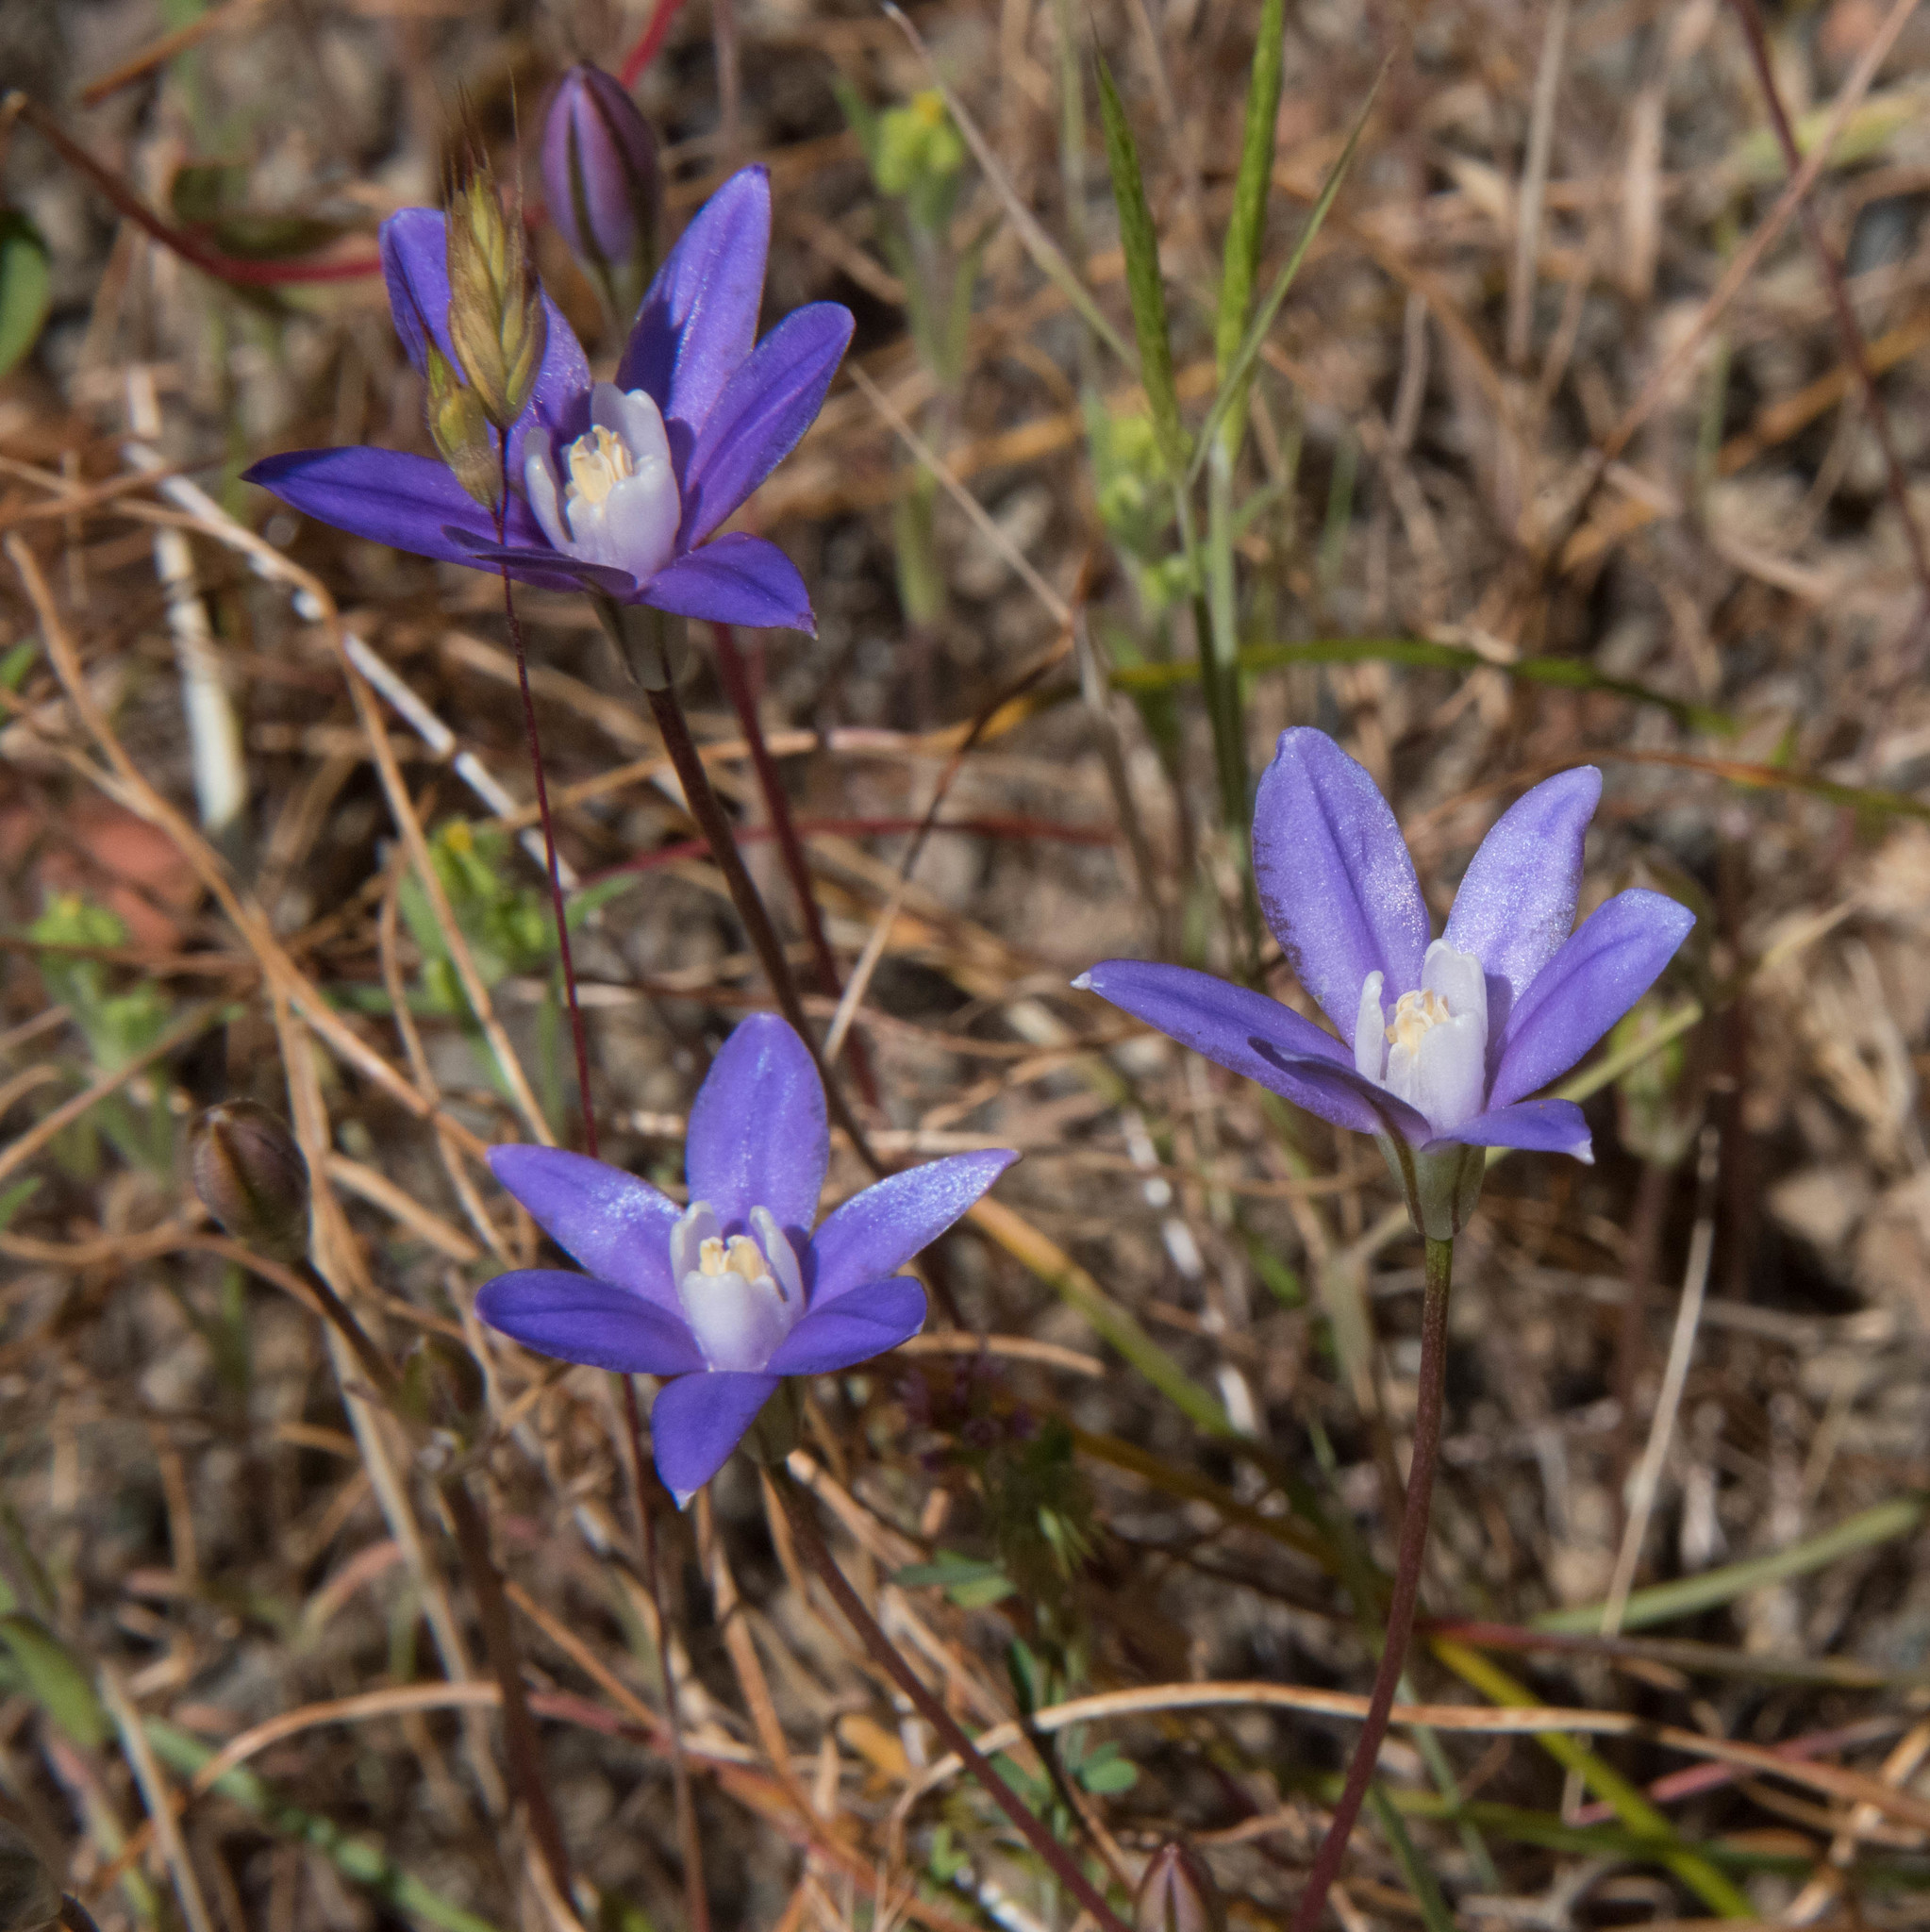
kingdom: Plantae
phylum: Tracheophyta
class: Liliopsida
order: Asparagales
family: Asparagaceae
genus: Brodiaea
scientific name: Brodiaea stellaris
